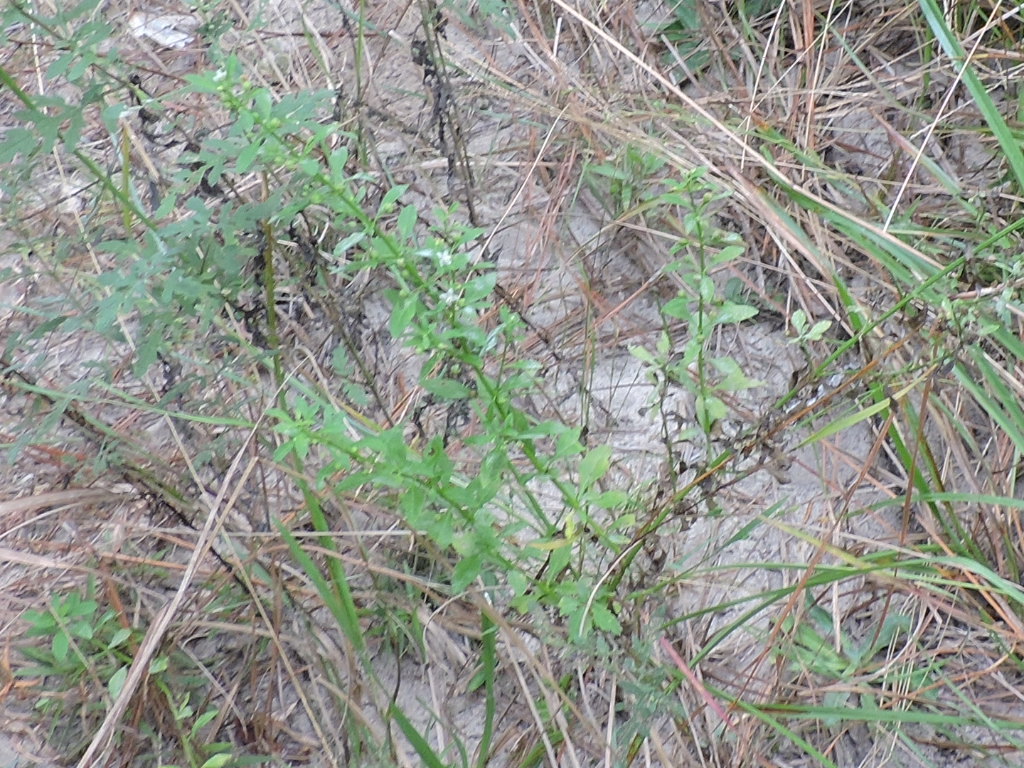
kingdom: Plantae
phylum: Tracheophyta
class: Magnoliopsida
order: Lamiales
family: Plantaginaceae
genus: Scoparia
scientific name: Scoparia dulcis
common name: Scoparia-weed
